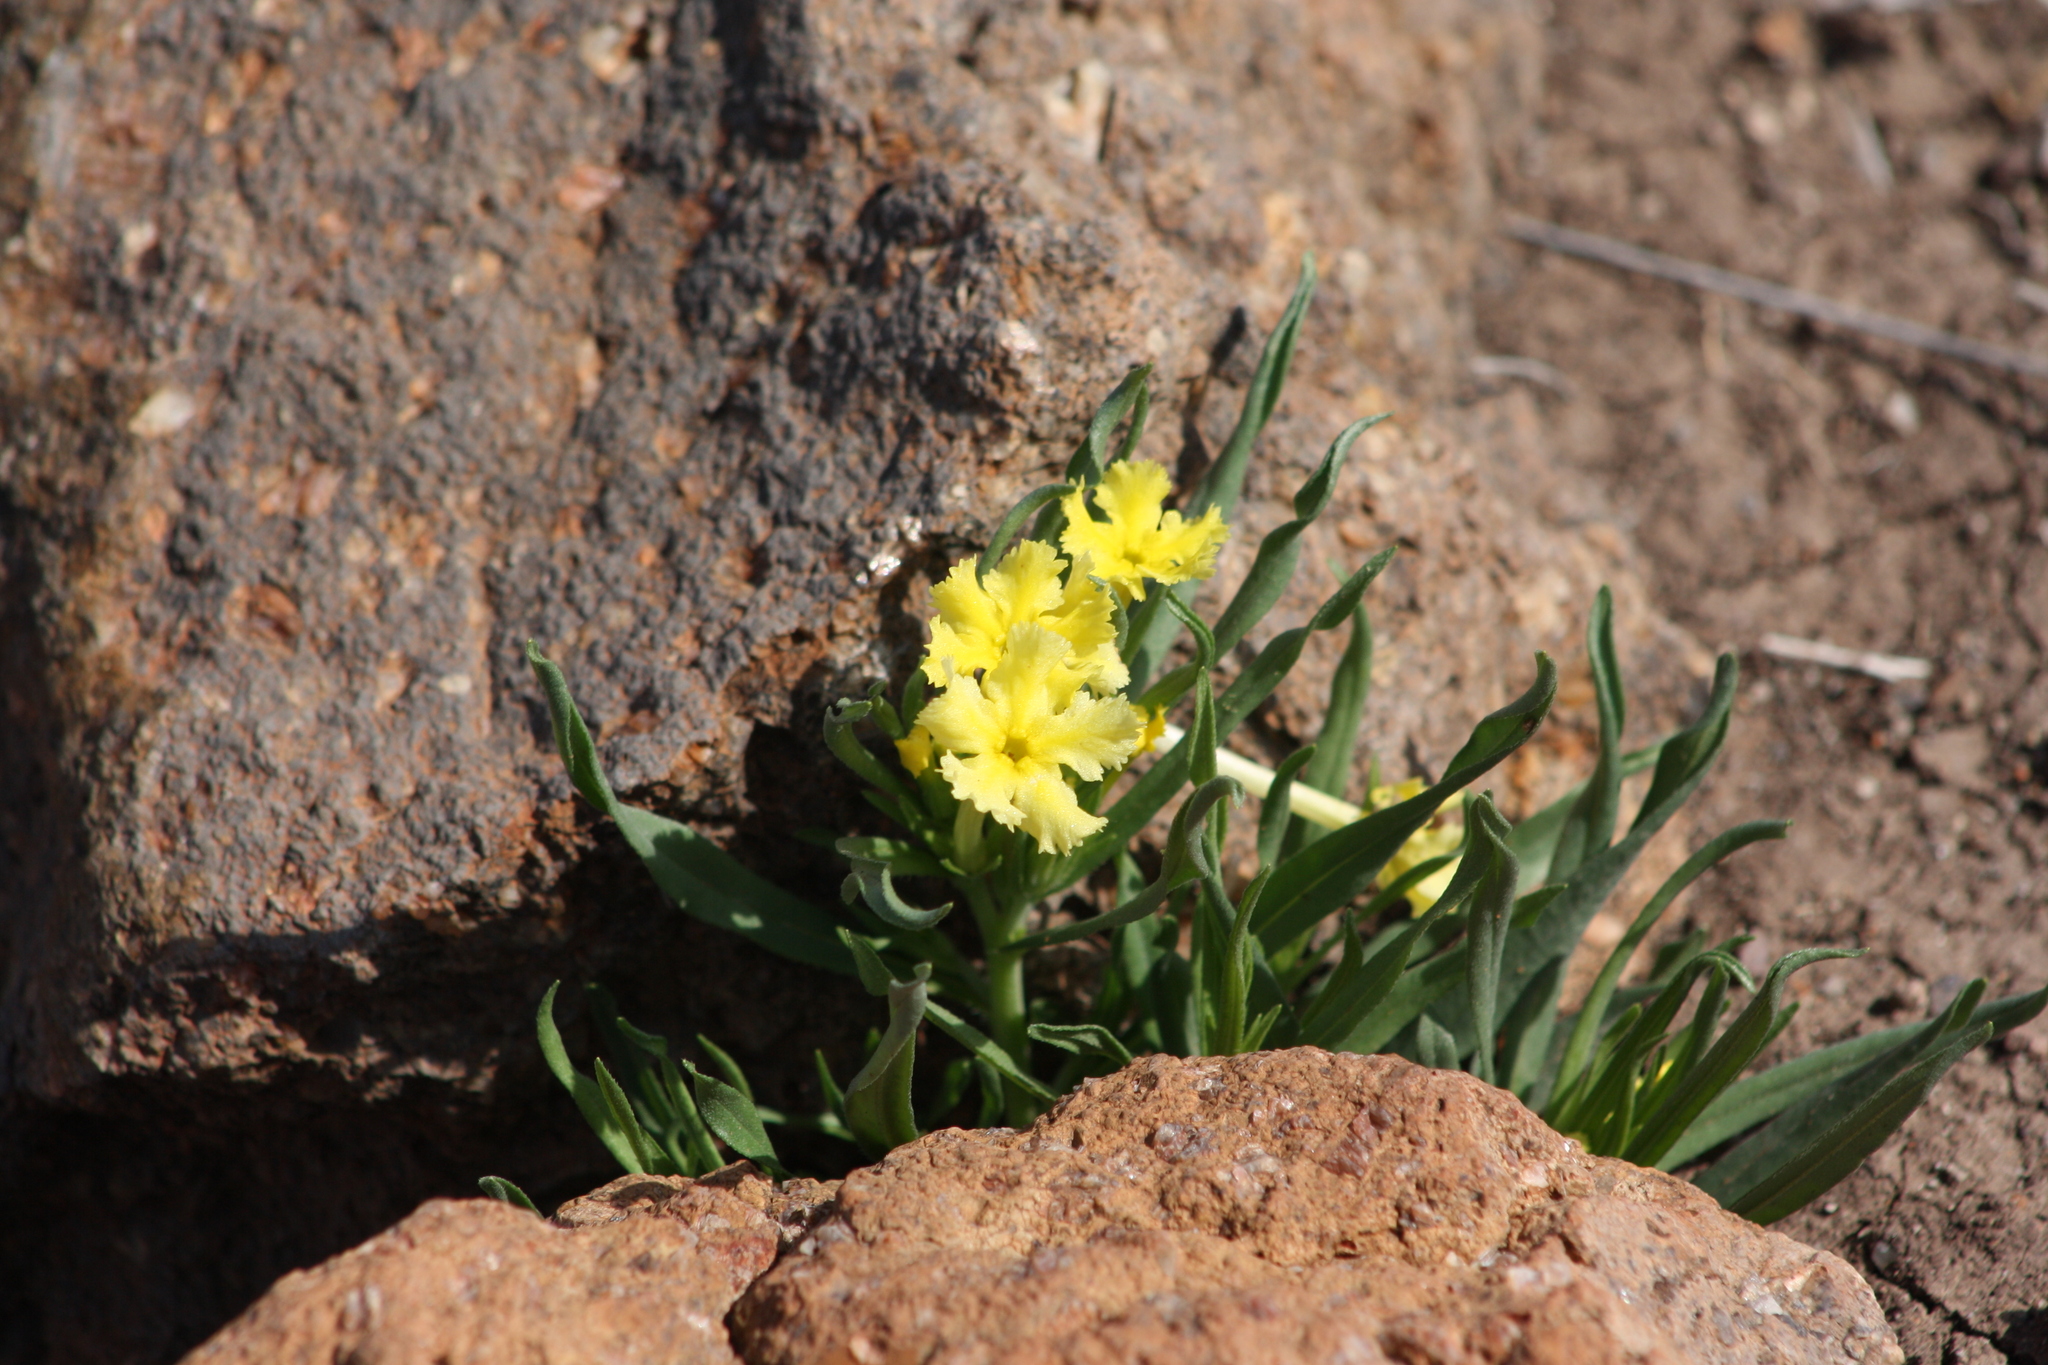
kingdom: Plantae
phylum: Tracheophyta
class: Magnoliopsida
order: Boraginales
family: Boraginaceae
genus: Lithospermum
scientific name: Lithospermum incisum
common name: Fringed gromwell
